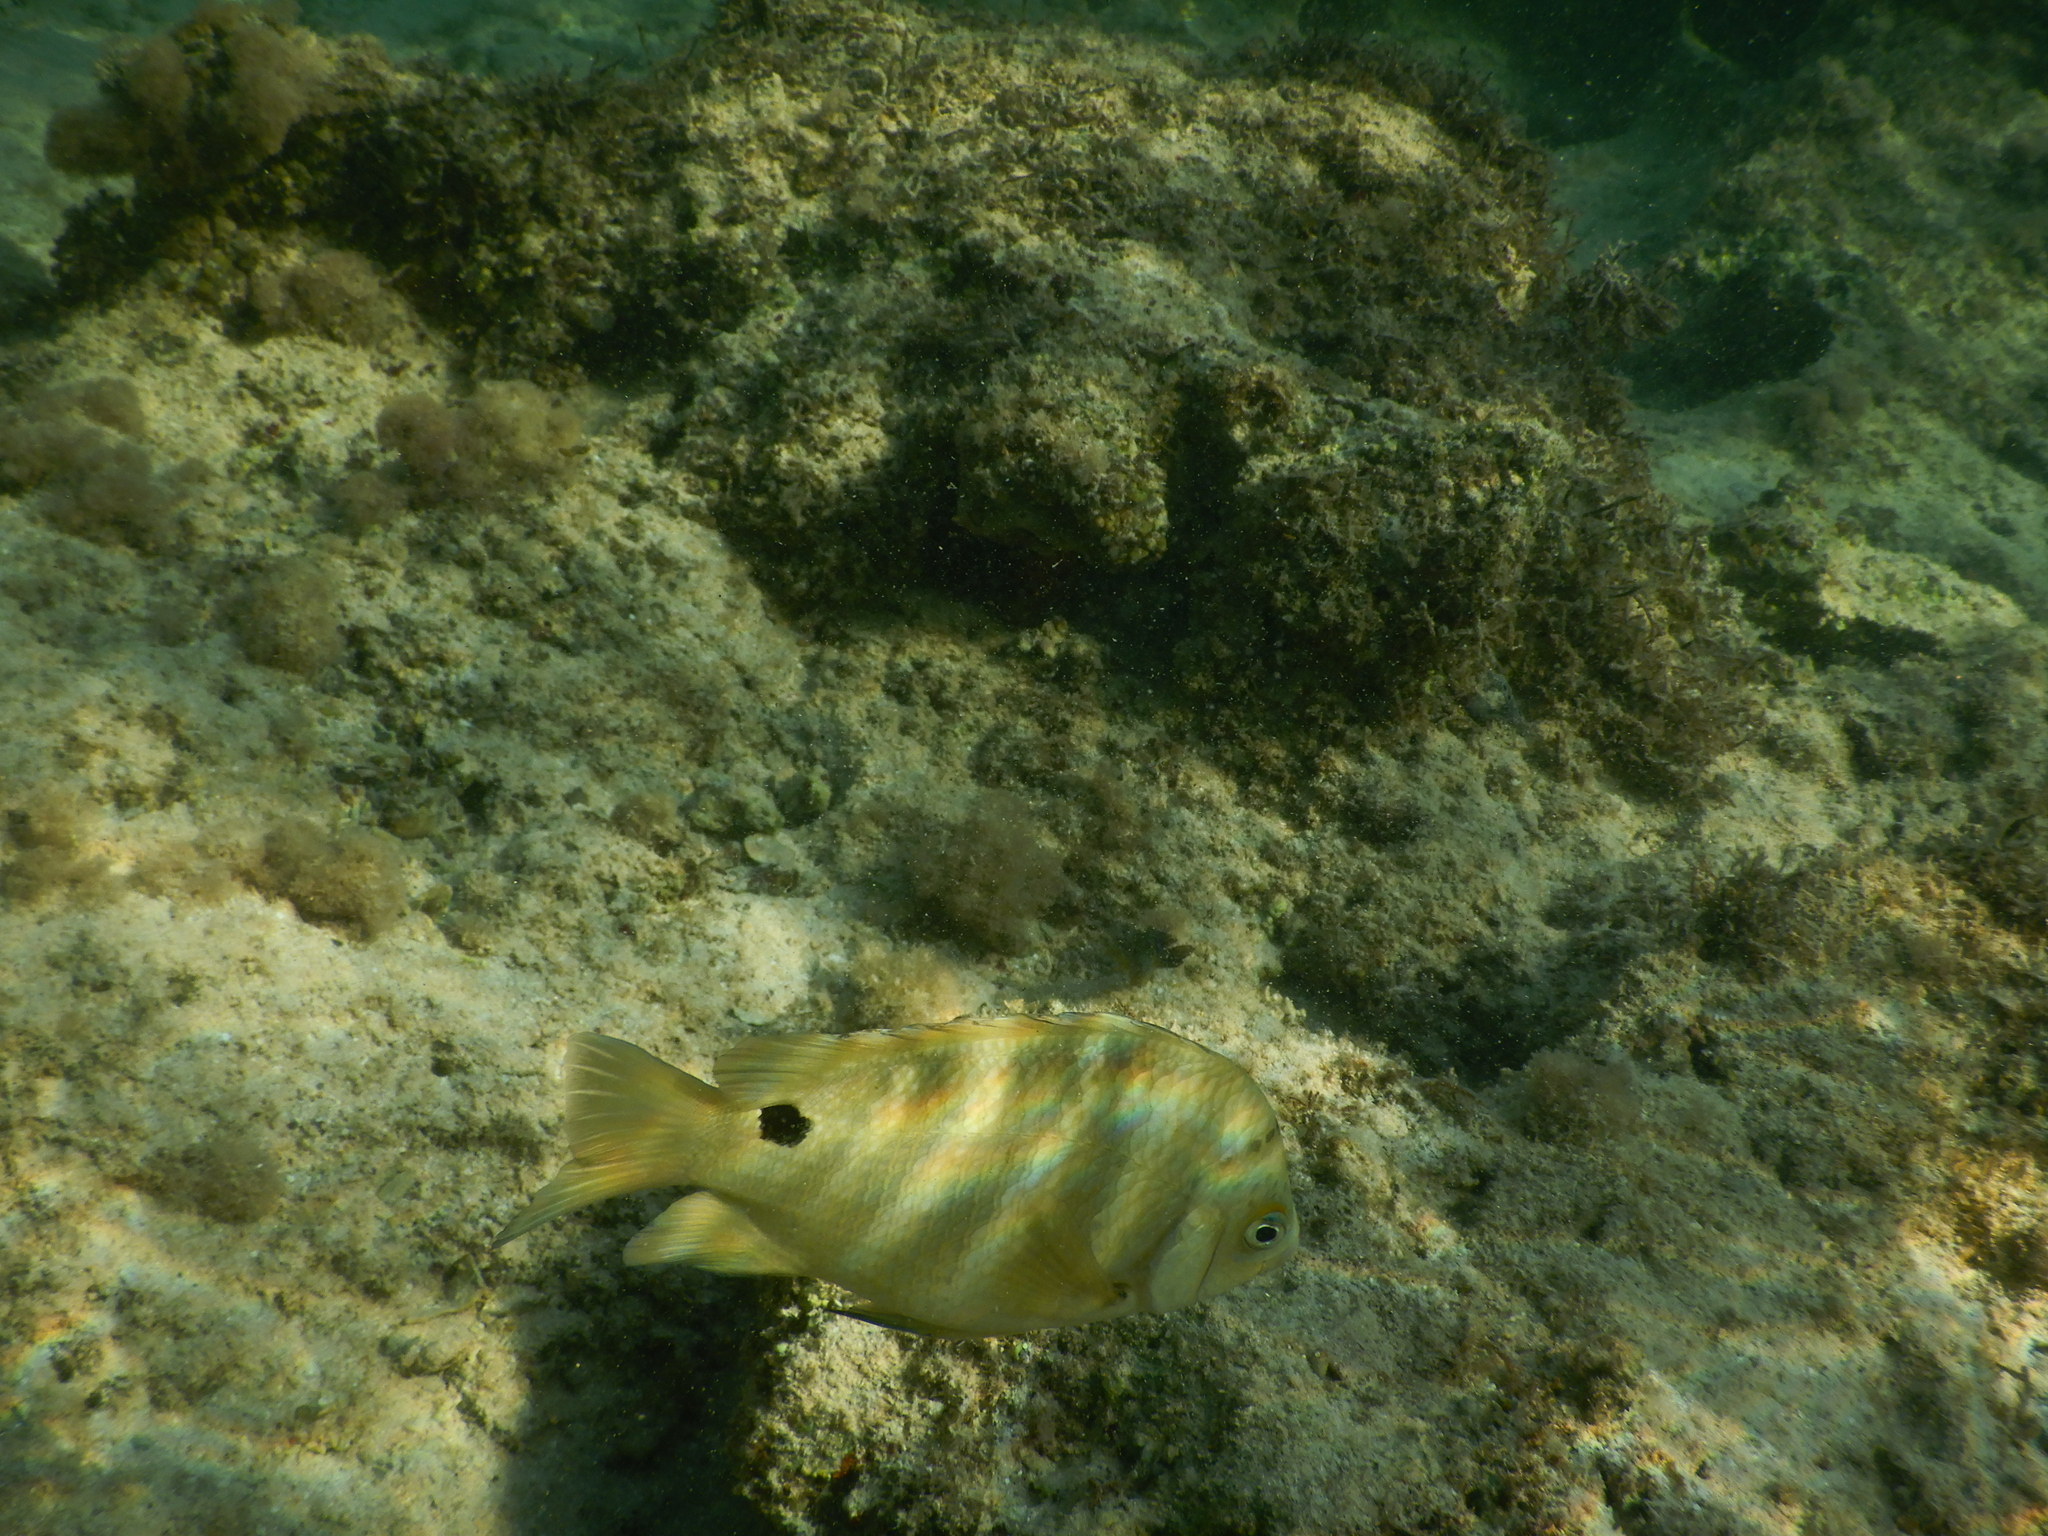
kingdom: Animalia
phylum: Chordata
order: Perciformes
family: Pomacentridae
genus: Abudefduf
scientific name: Abudefduf sordidus
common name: Blackspot sergeant
